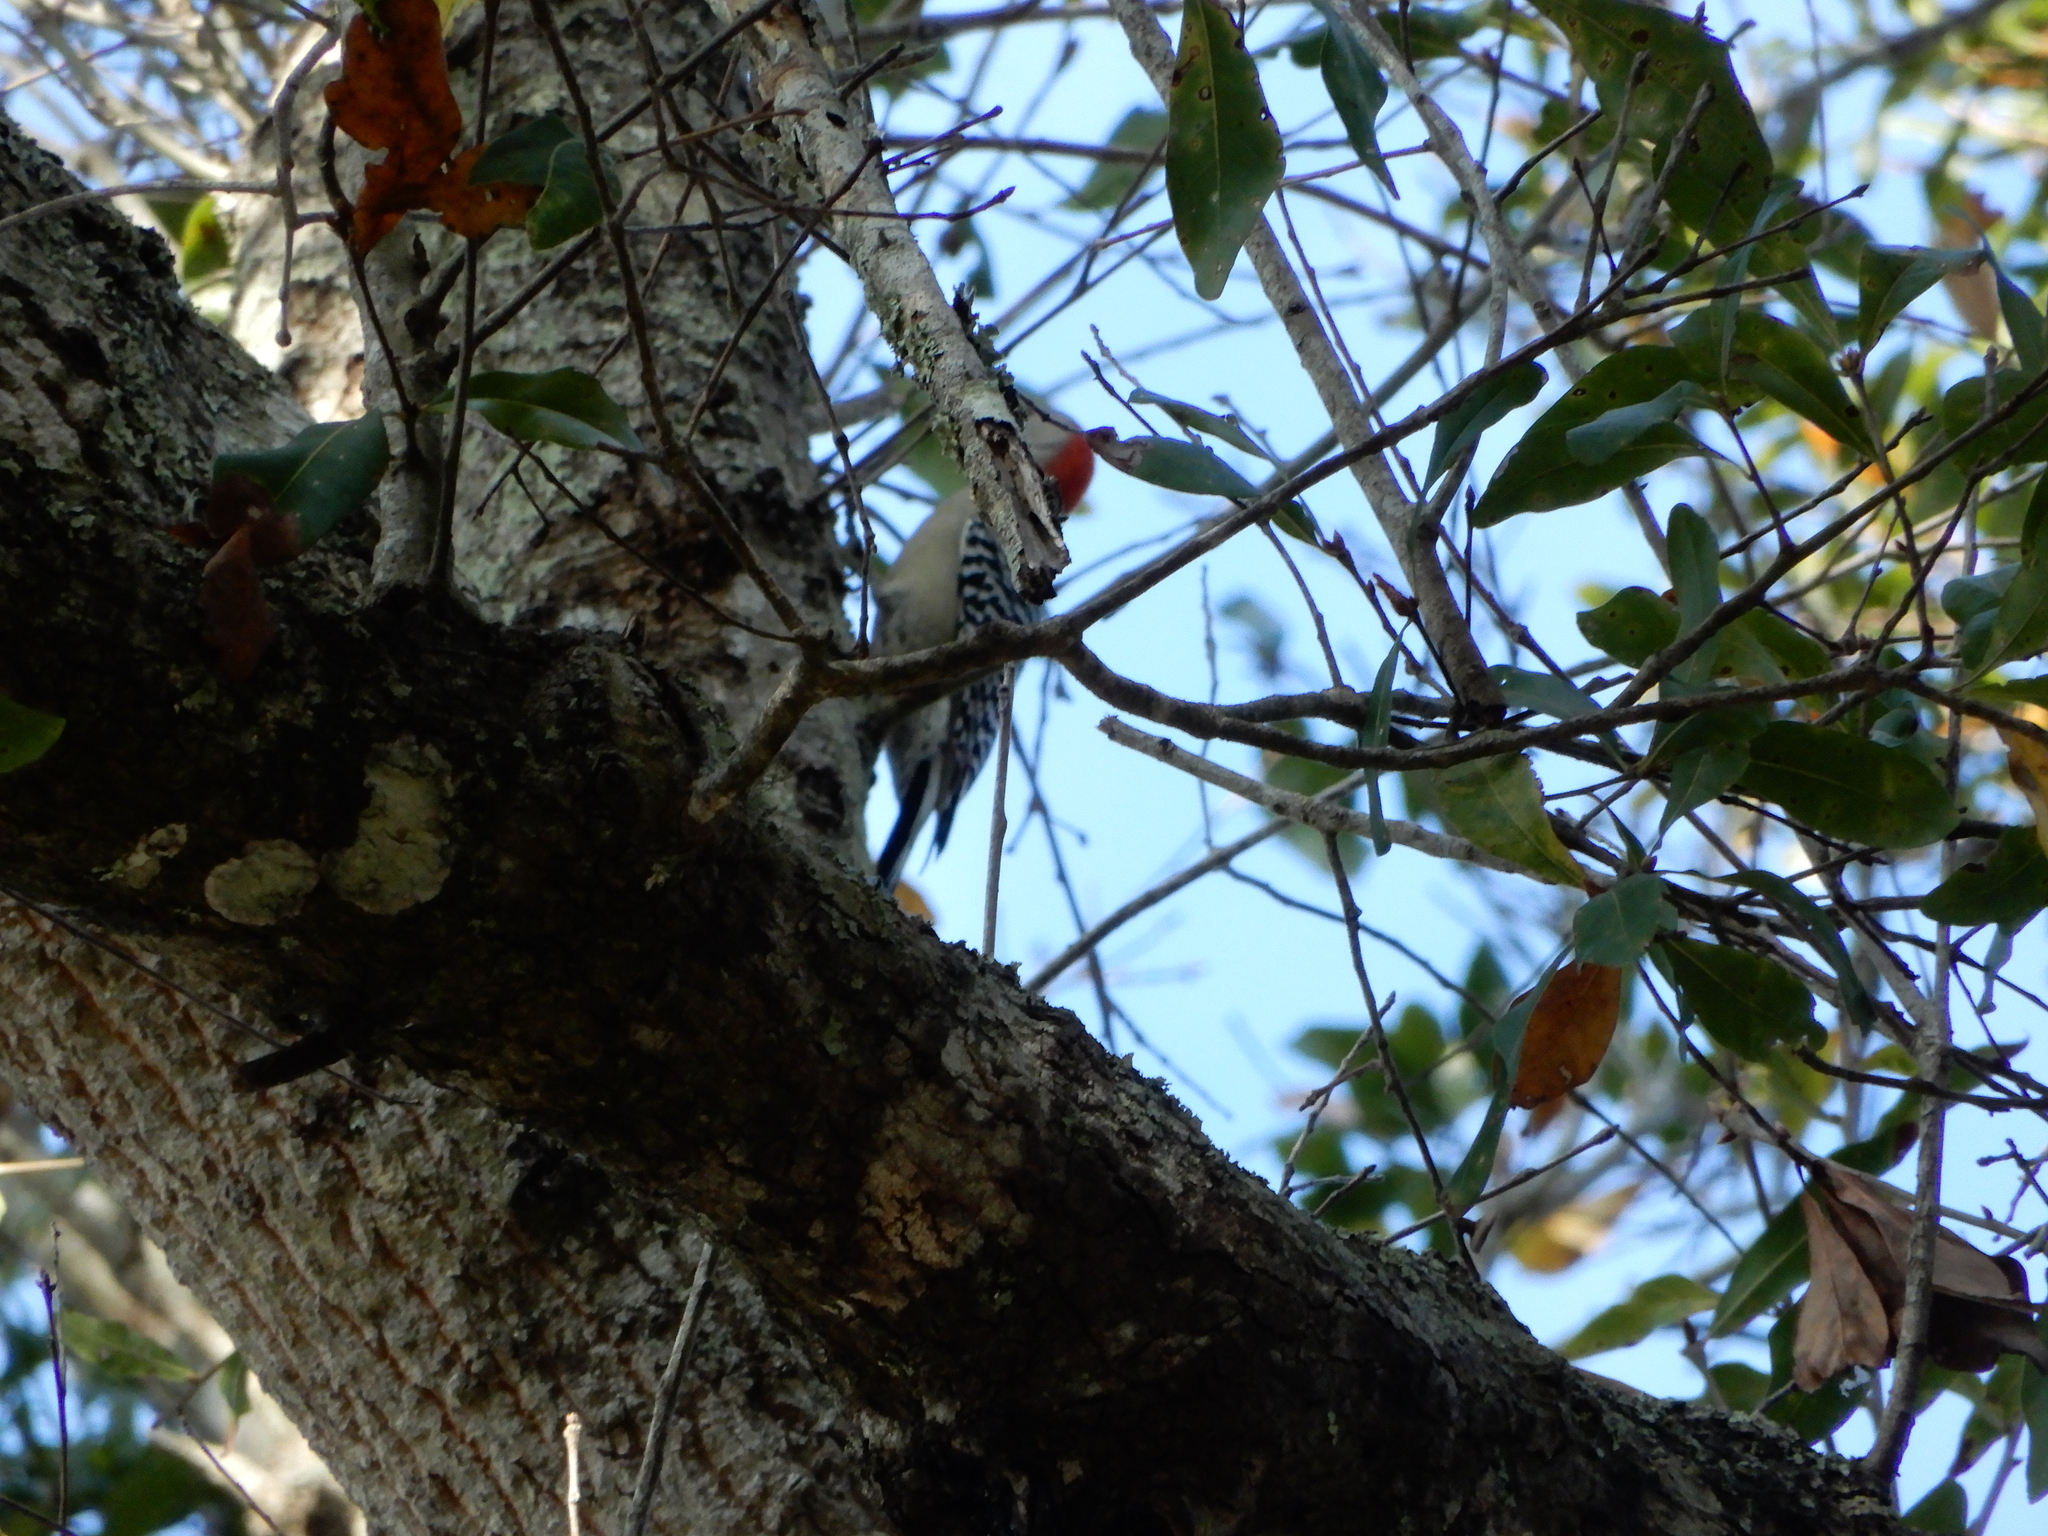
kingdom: Animalia
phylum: Chordata
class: Aves
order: Piciformes
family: Picidae
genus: Melanerpes
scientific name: Melanerpes carolinus
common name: Red-bellied woodpecker
